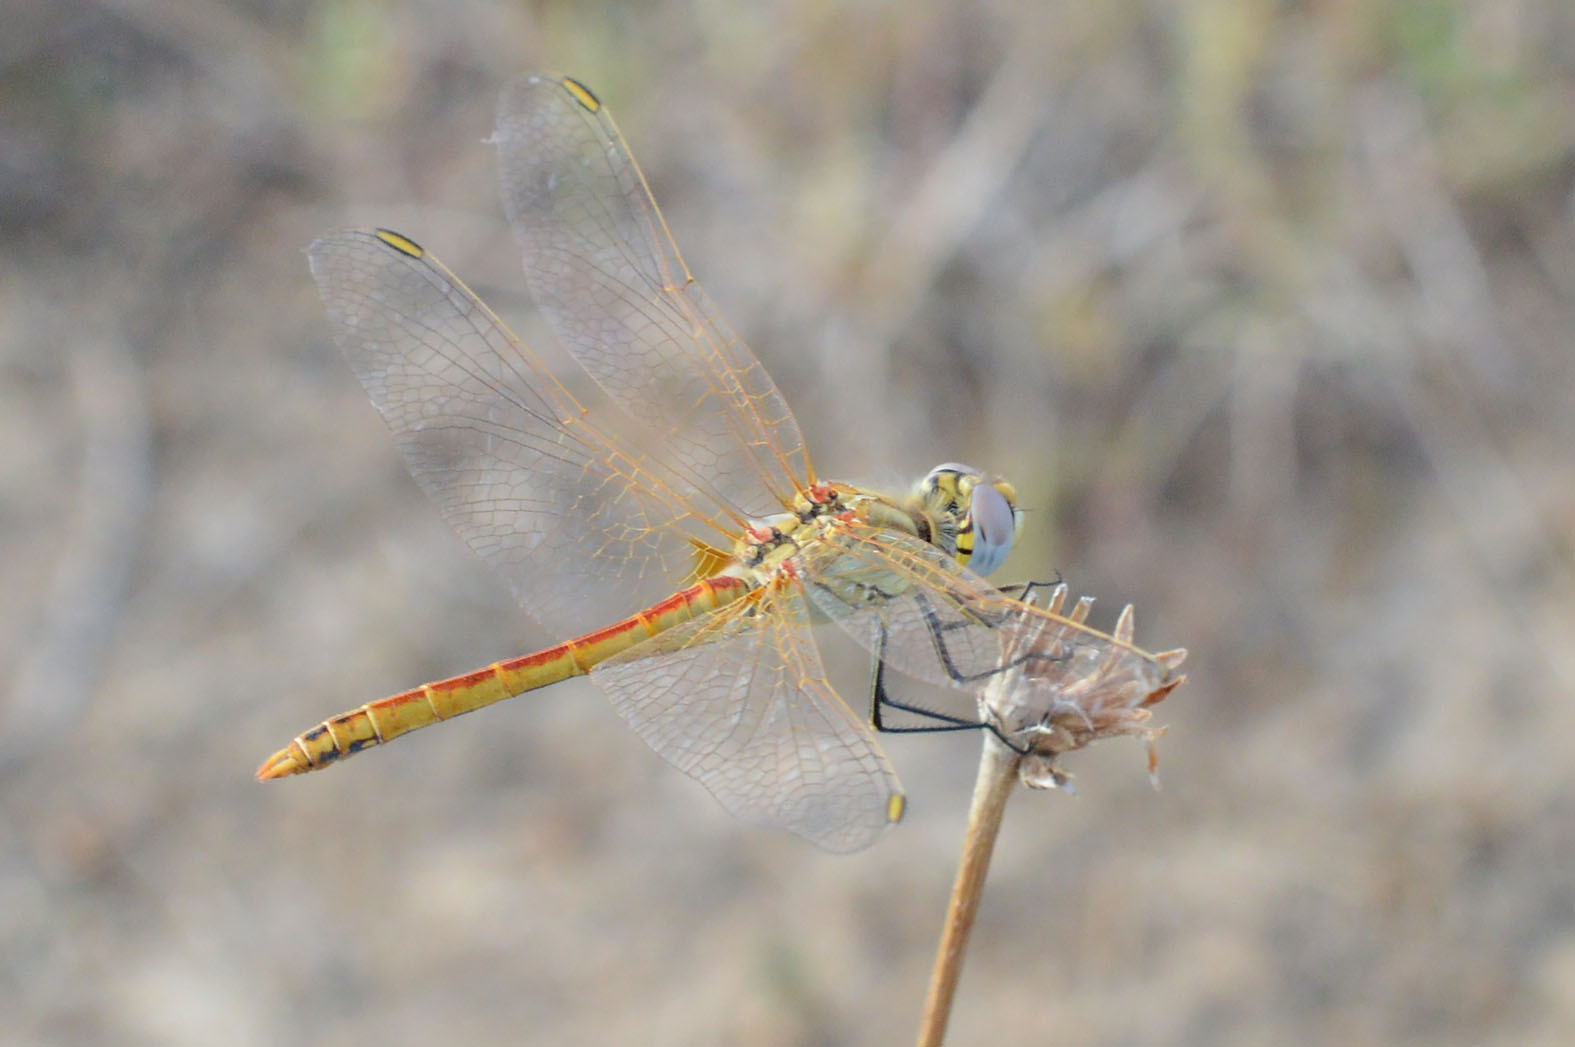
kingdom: Animalia
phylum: Arthropoda
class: Insecta
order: Odonata
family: Libellulidae
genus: Sympetrum
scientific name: Sympetrum fonscolombii
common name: Red-veined darter
